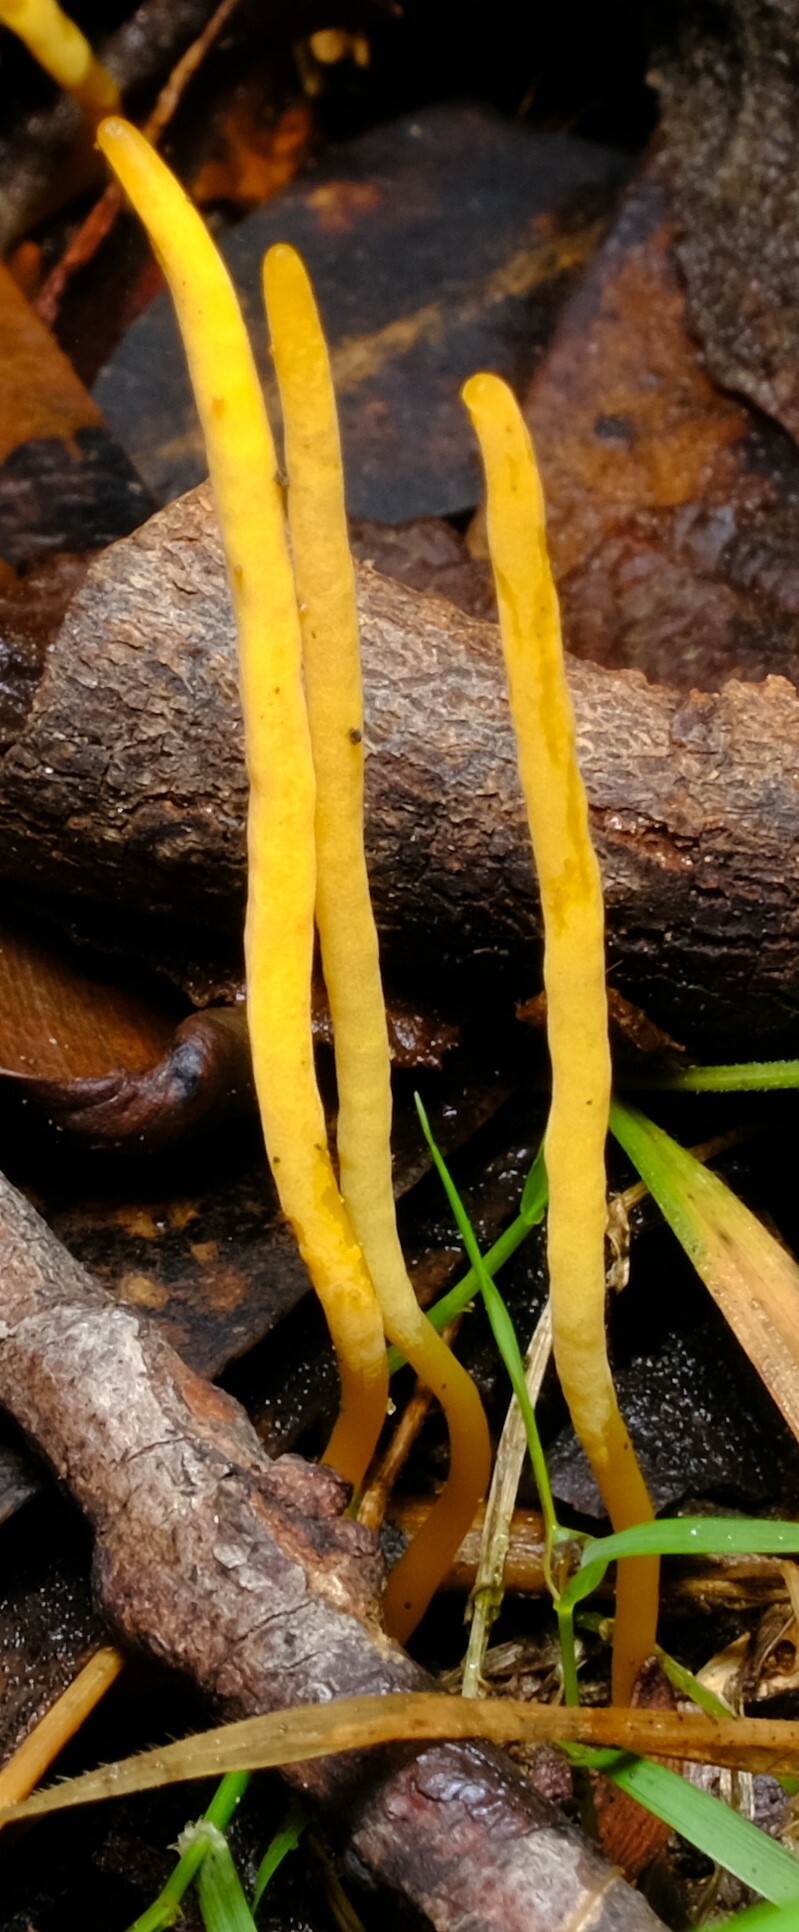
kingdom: Fungi
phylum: Basidiomycota
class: Agaricomycetes
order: Agaricales
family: Clavariaceae
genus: Clavulinopsis
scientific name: Clavulinopsis amoena
